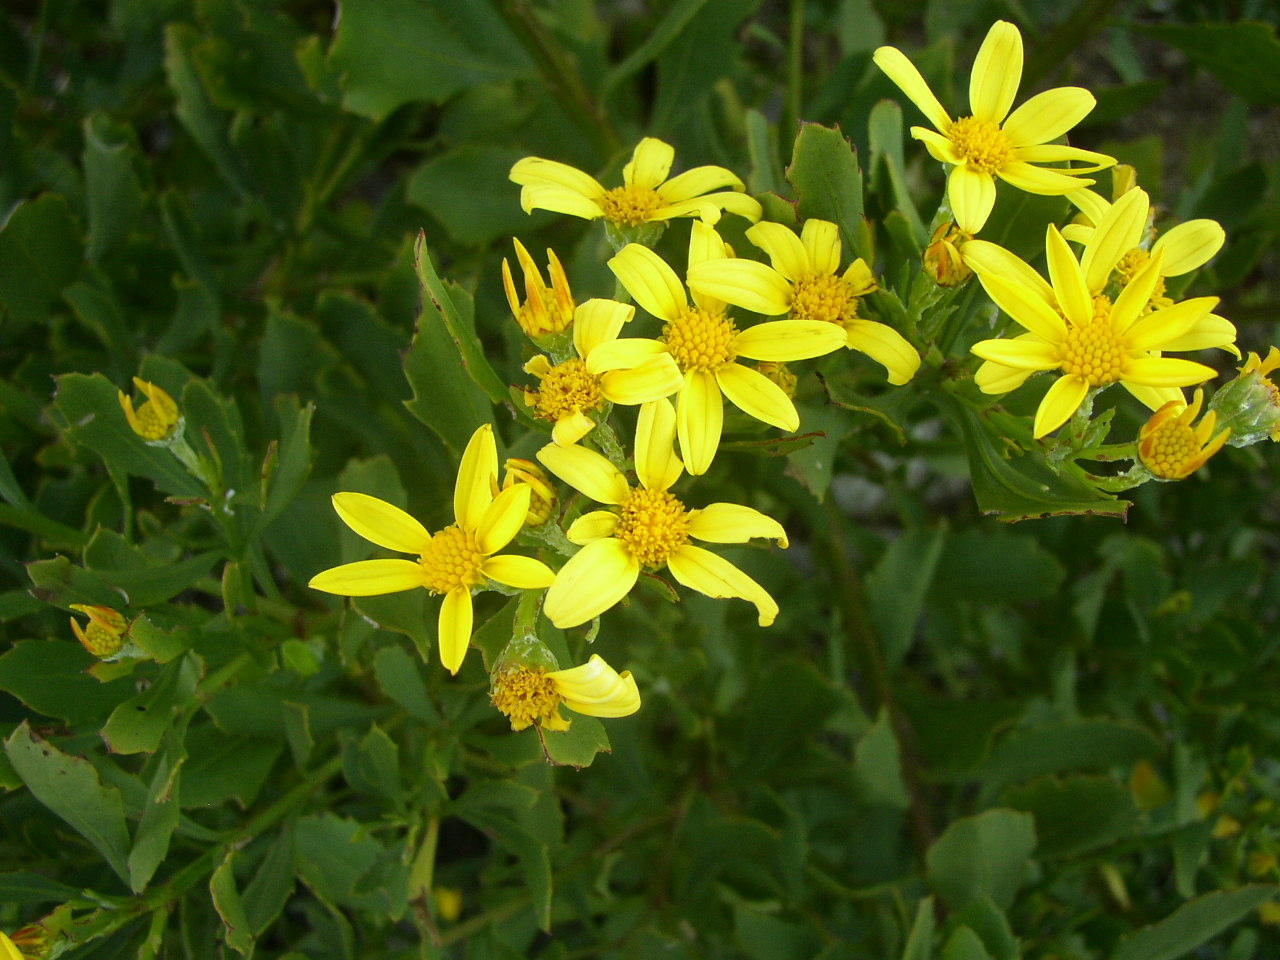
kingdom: Plantae
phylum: Tracheophyta
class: Magnoliopsida
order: Asterales
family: Asteraceae
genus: Osteospermum
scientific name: Osteospermum moniliferum
